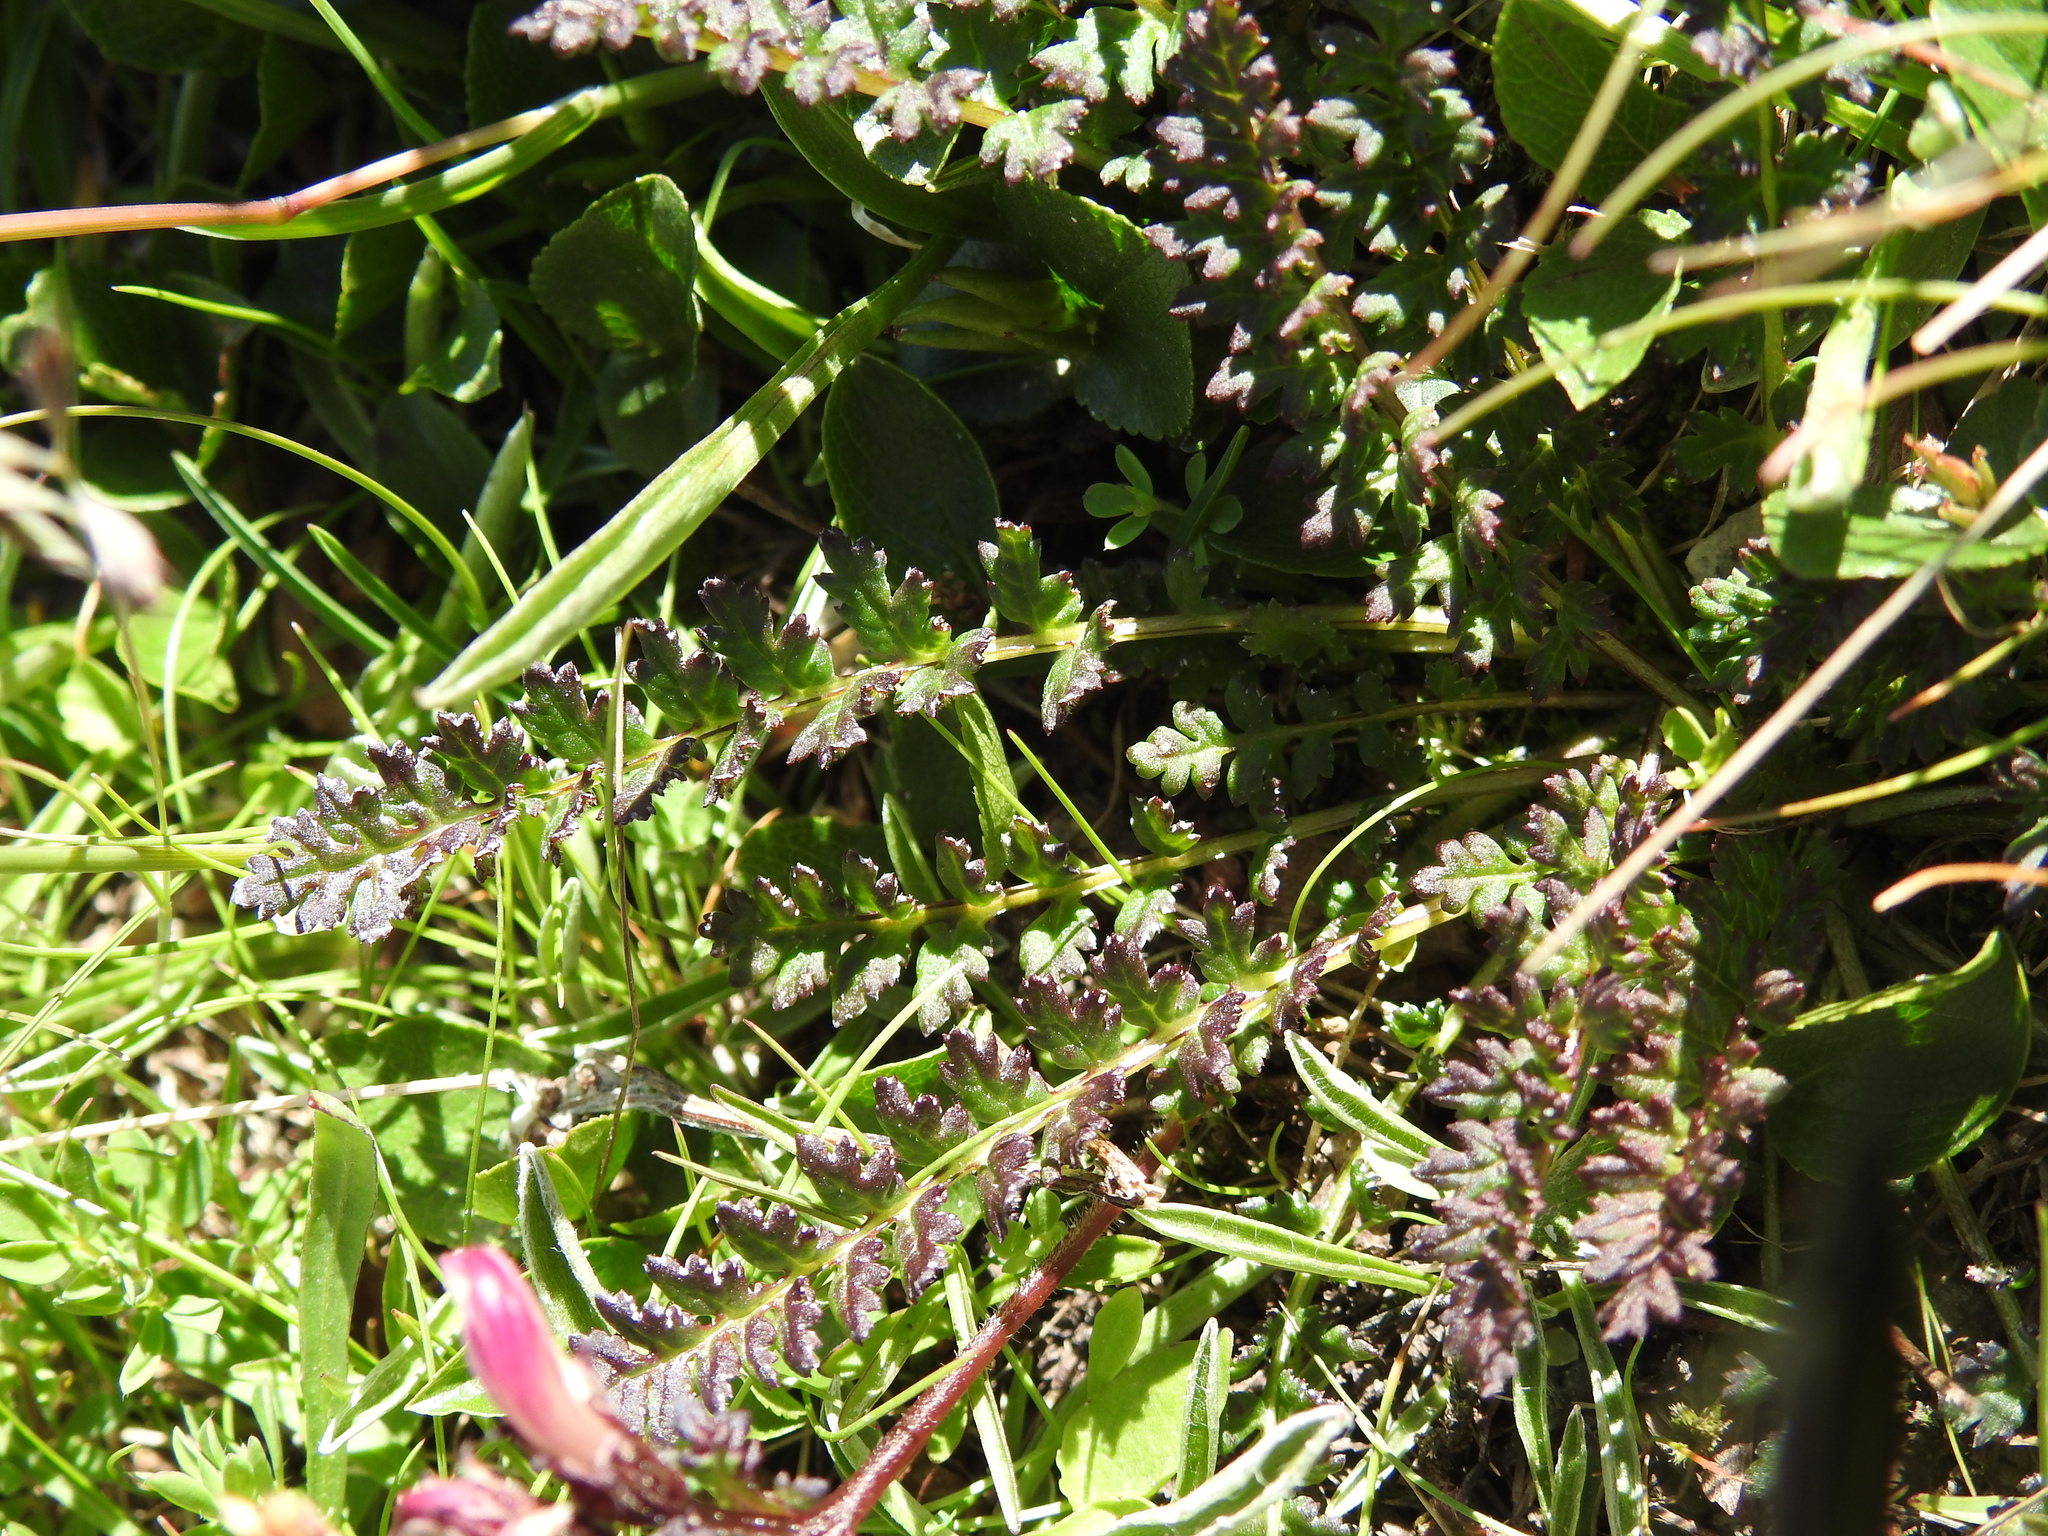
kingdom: Plantae
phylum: Tracheophyta
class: Magnoliopsida
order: Lamiales
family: Orobanchaceae
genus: Pedicularis
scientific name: Pedicularis kerneri
